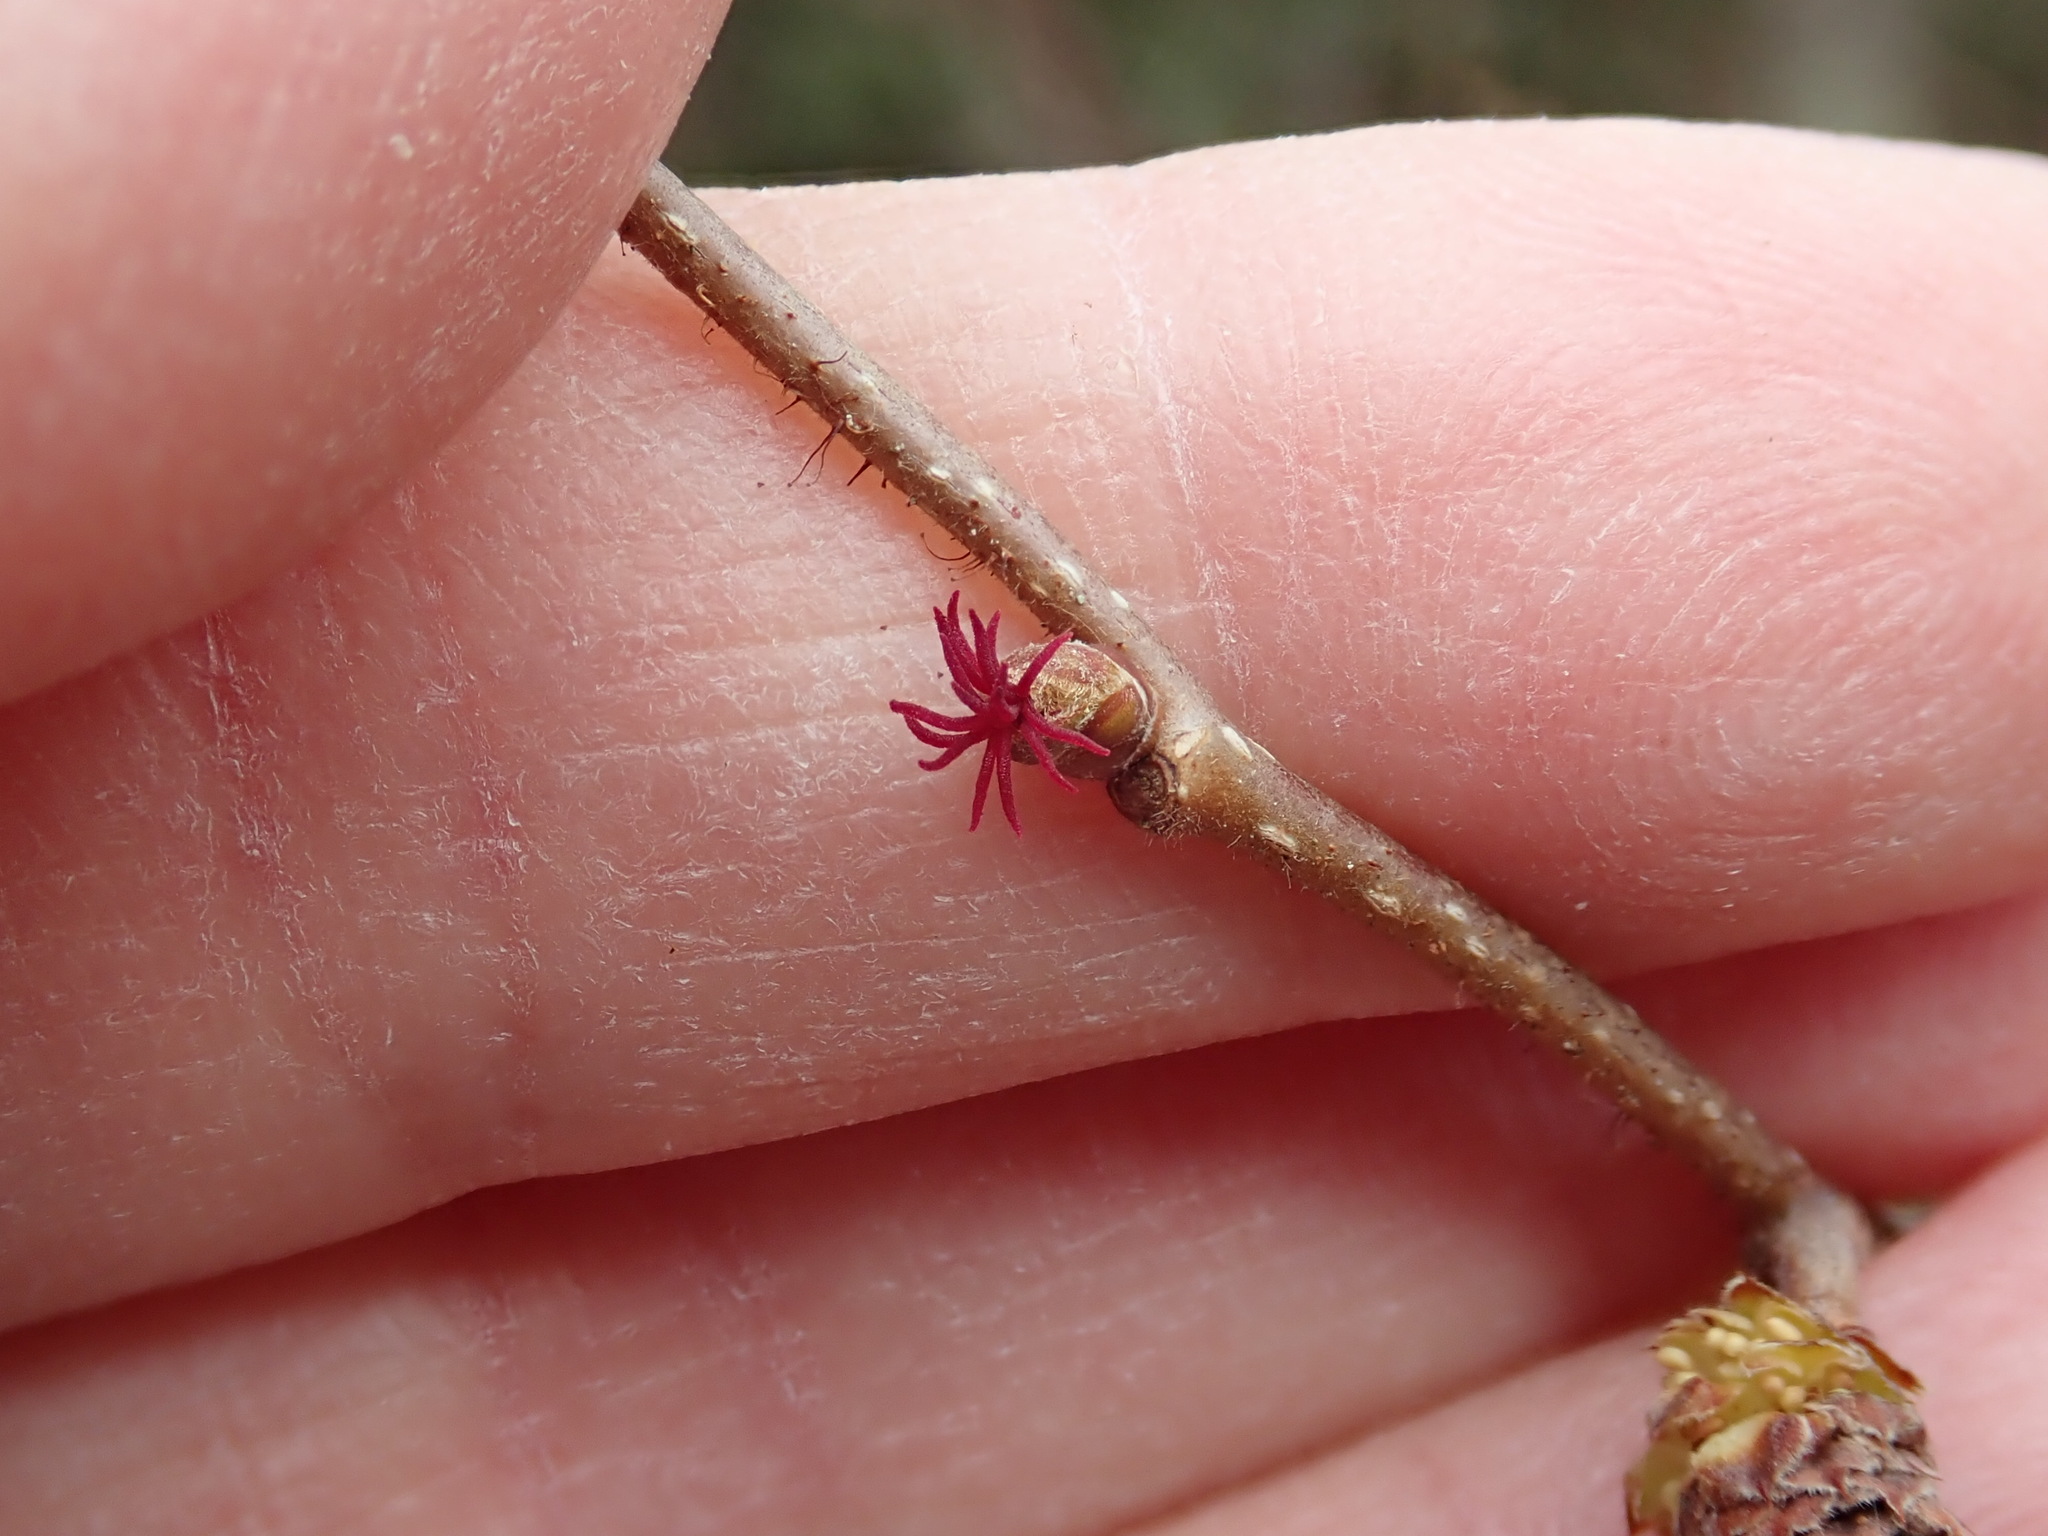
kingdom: Plantae
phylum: Tracheophyta
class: Magnoliopsida
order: Fagales
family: Betulaceae
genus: Corylus
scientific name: Corylus cornuta
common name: Beaked hazel
